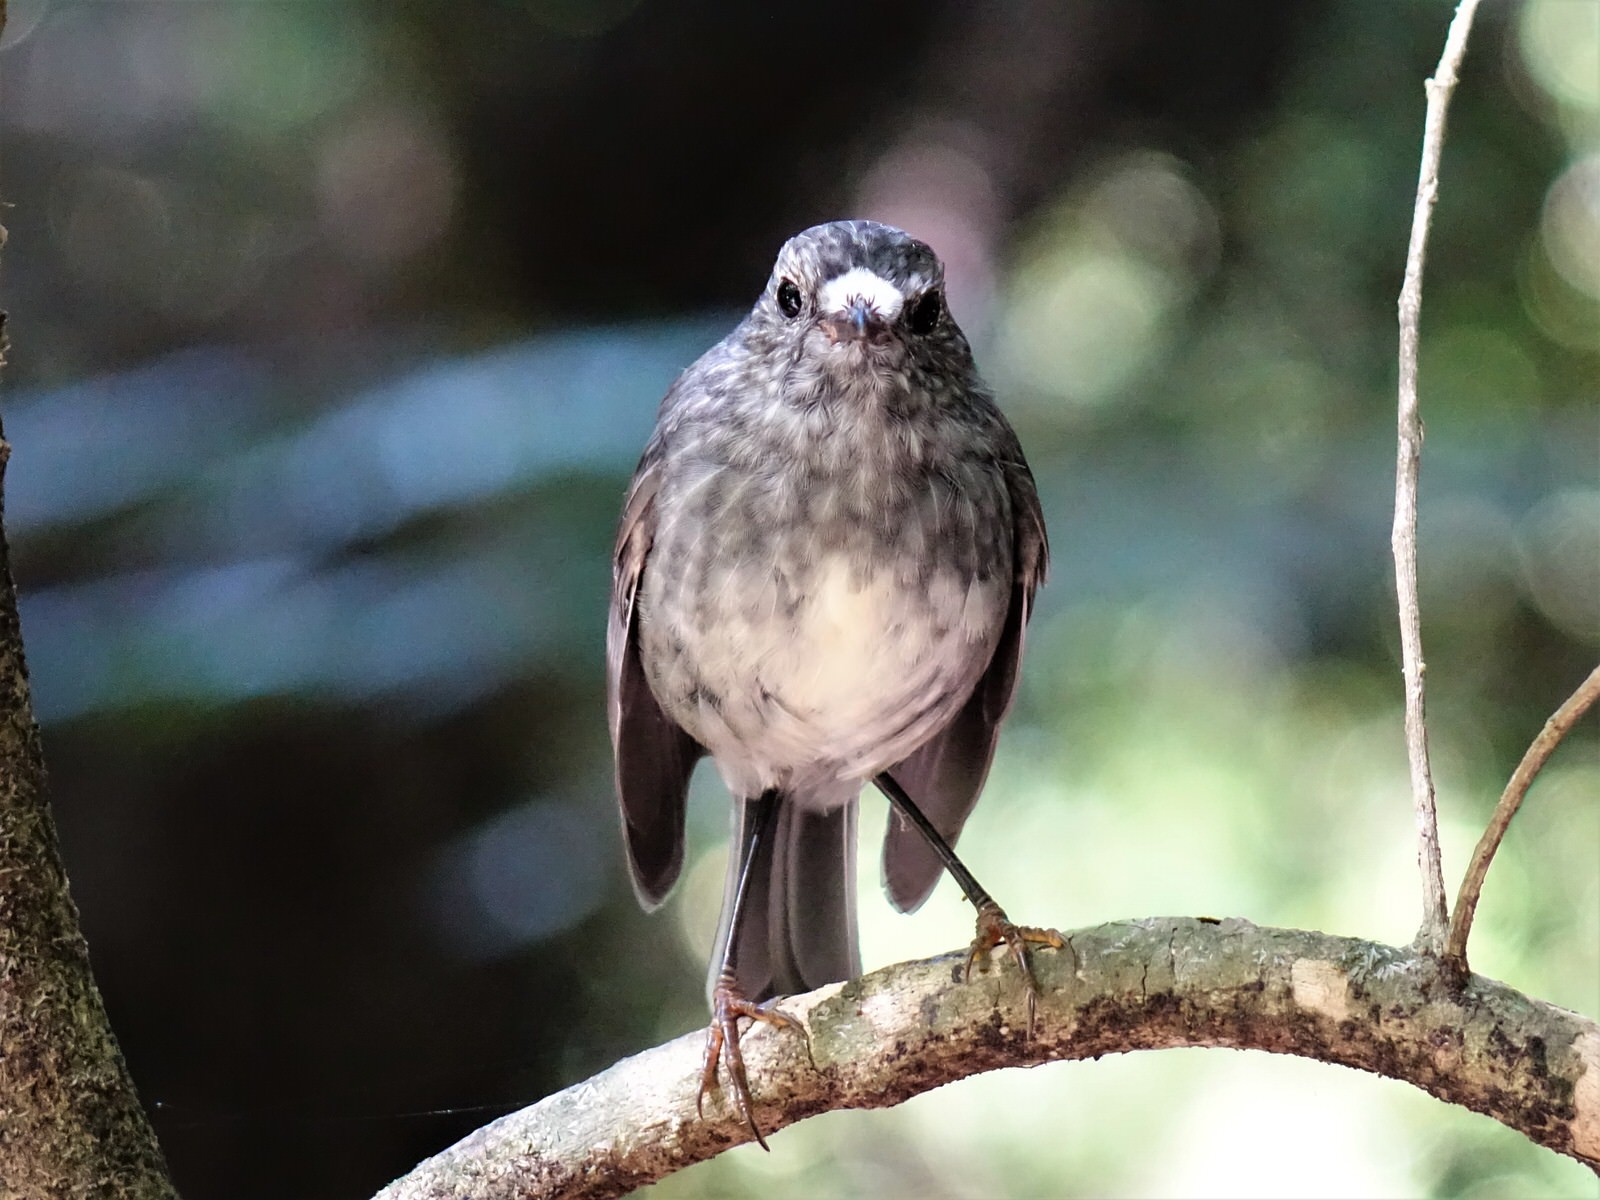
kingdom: Animalia
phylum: Chordata
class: Aves
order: Passeriformes
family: Petroicidae
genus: Petroica
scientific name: Petroica australis
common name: New zealand robin
